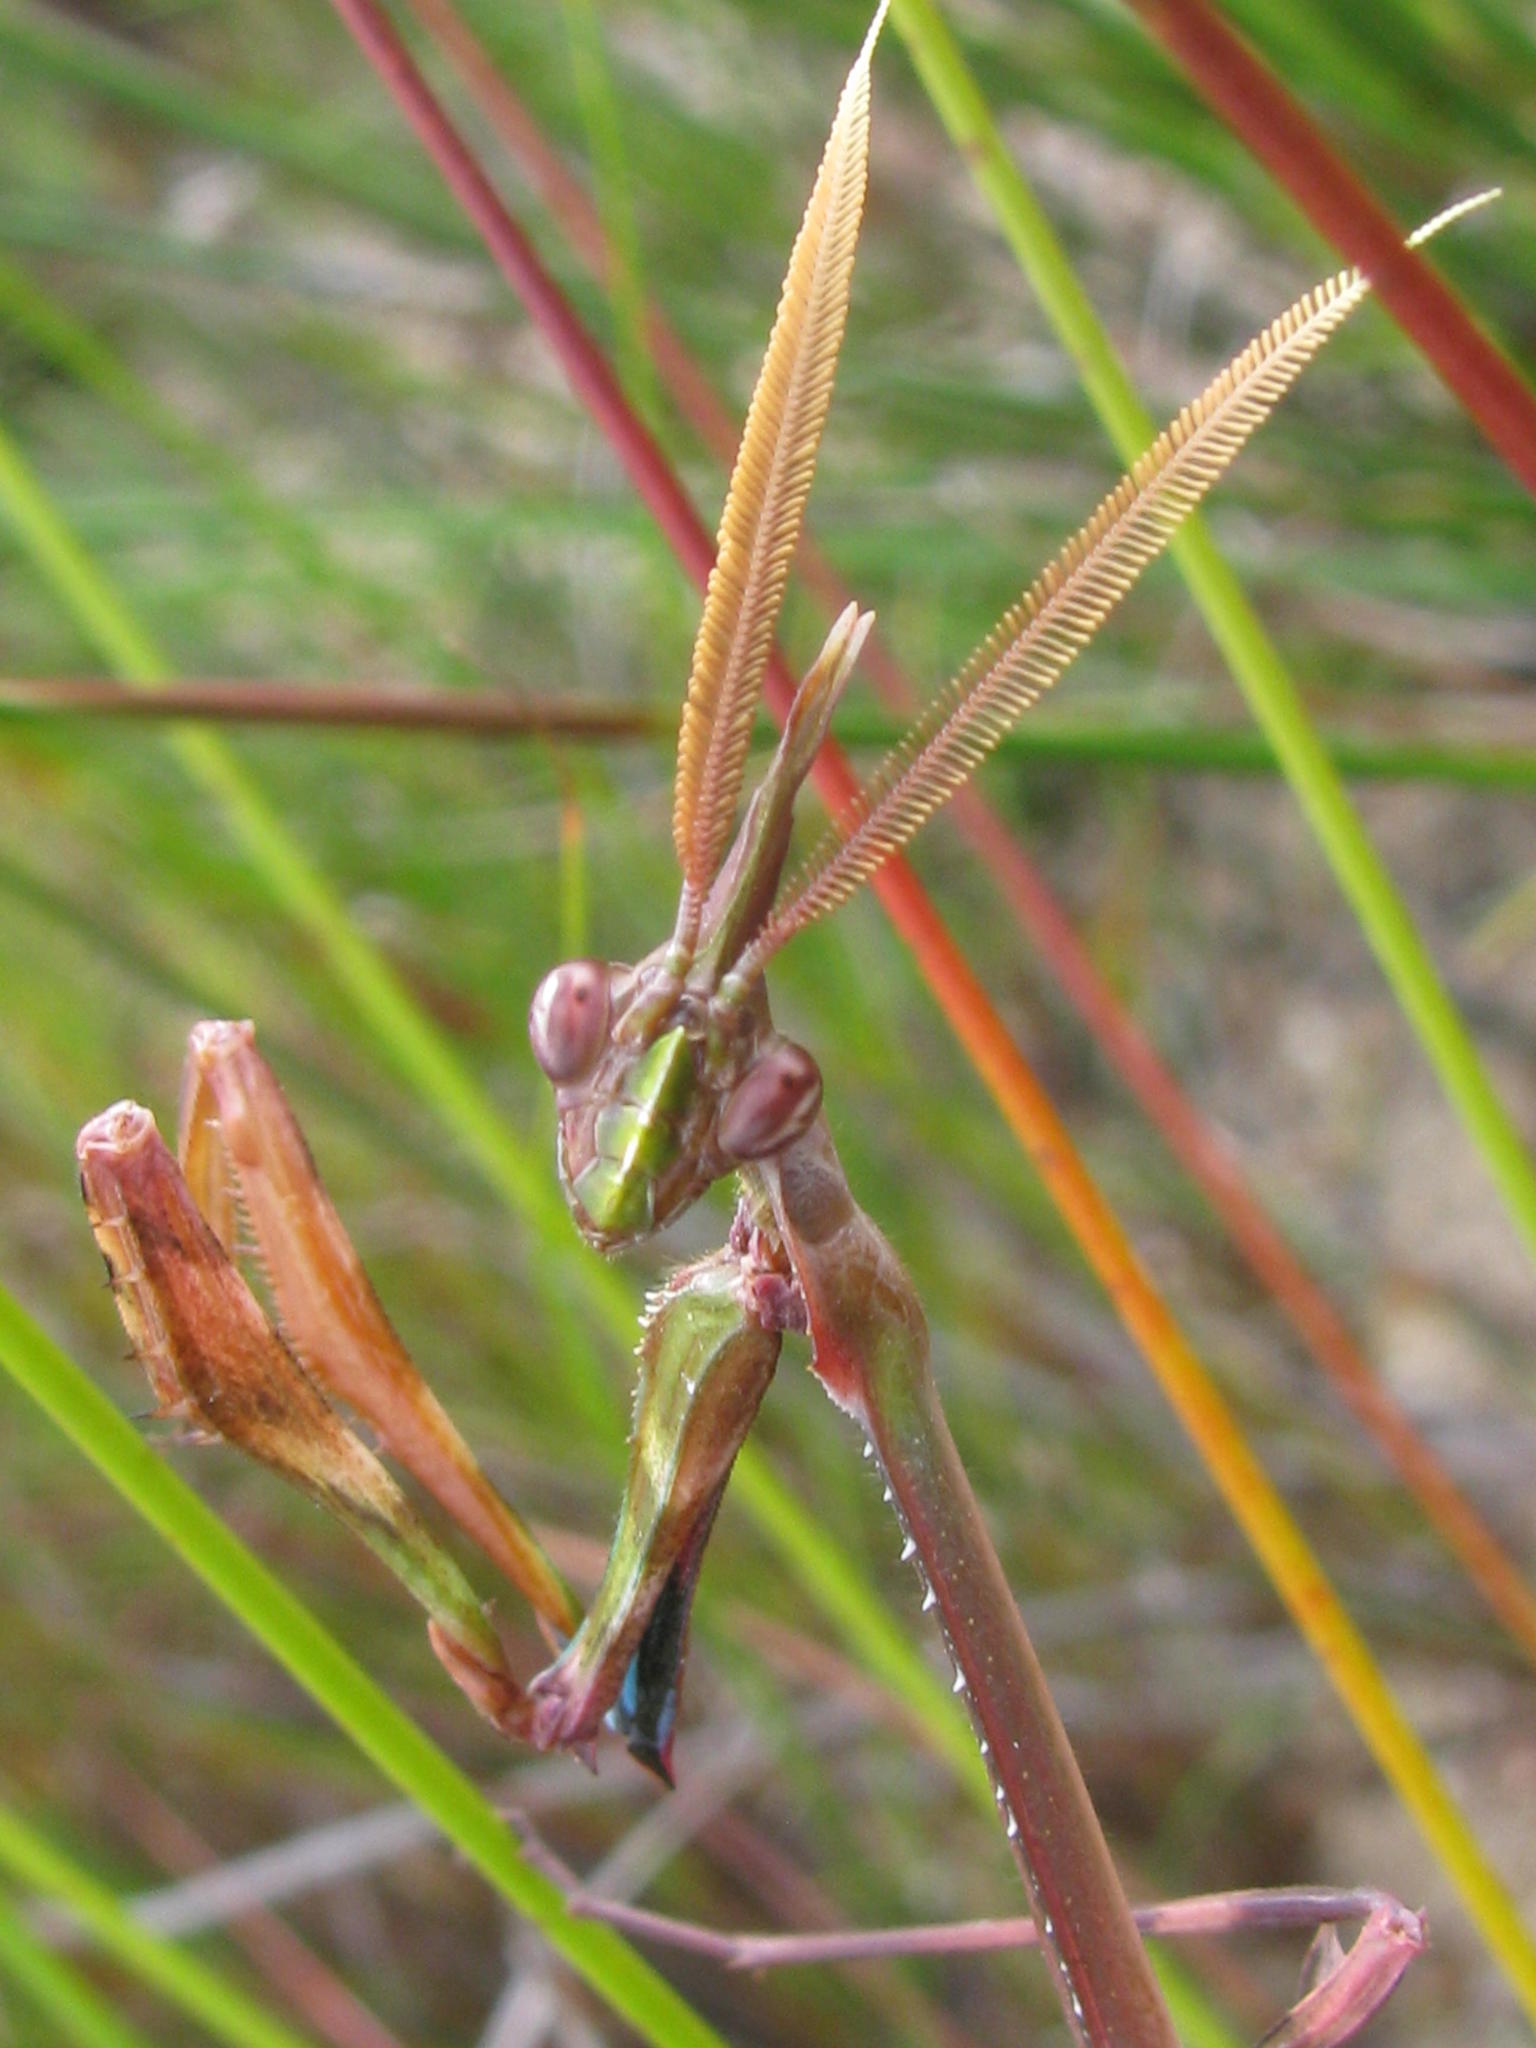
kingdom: Animalia
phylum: Arthropoda
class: Insecta
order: Mantodea
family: Empusidae
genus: Empusa
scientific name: Empusa binotata
